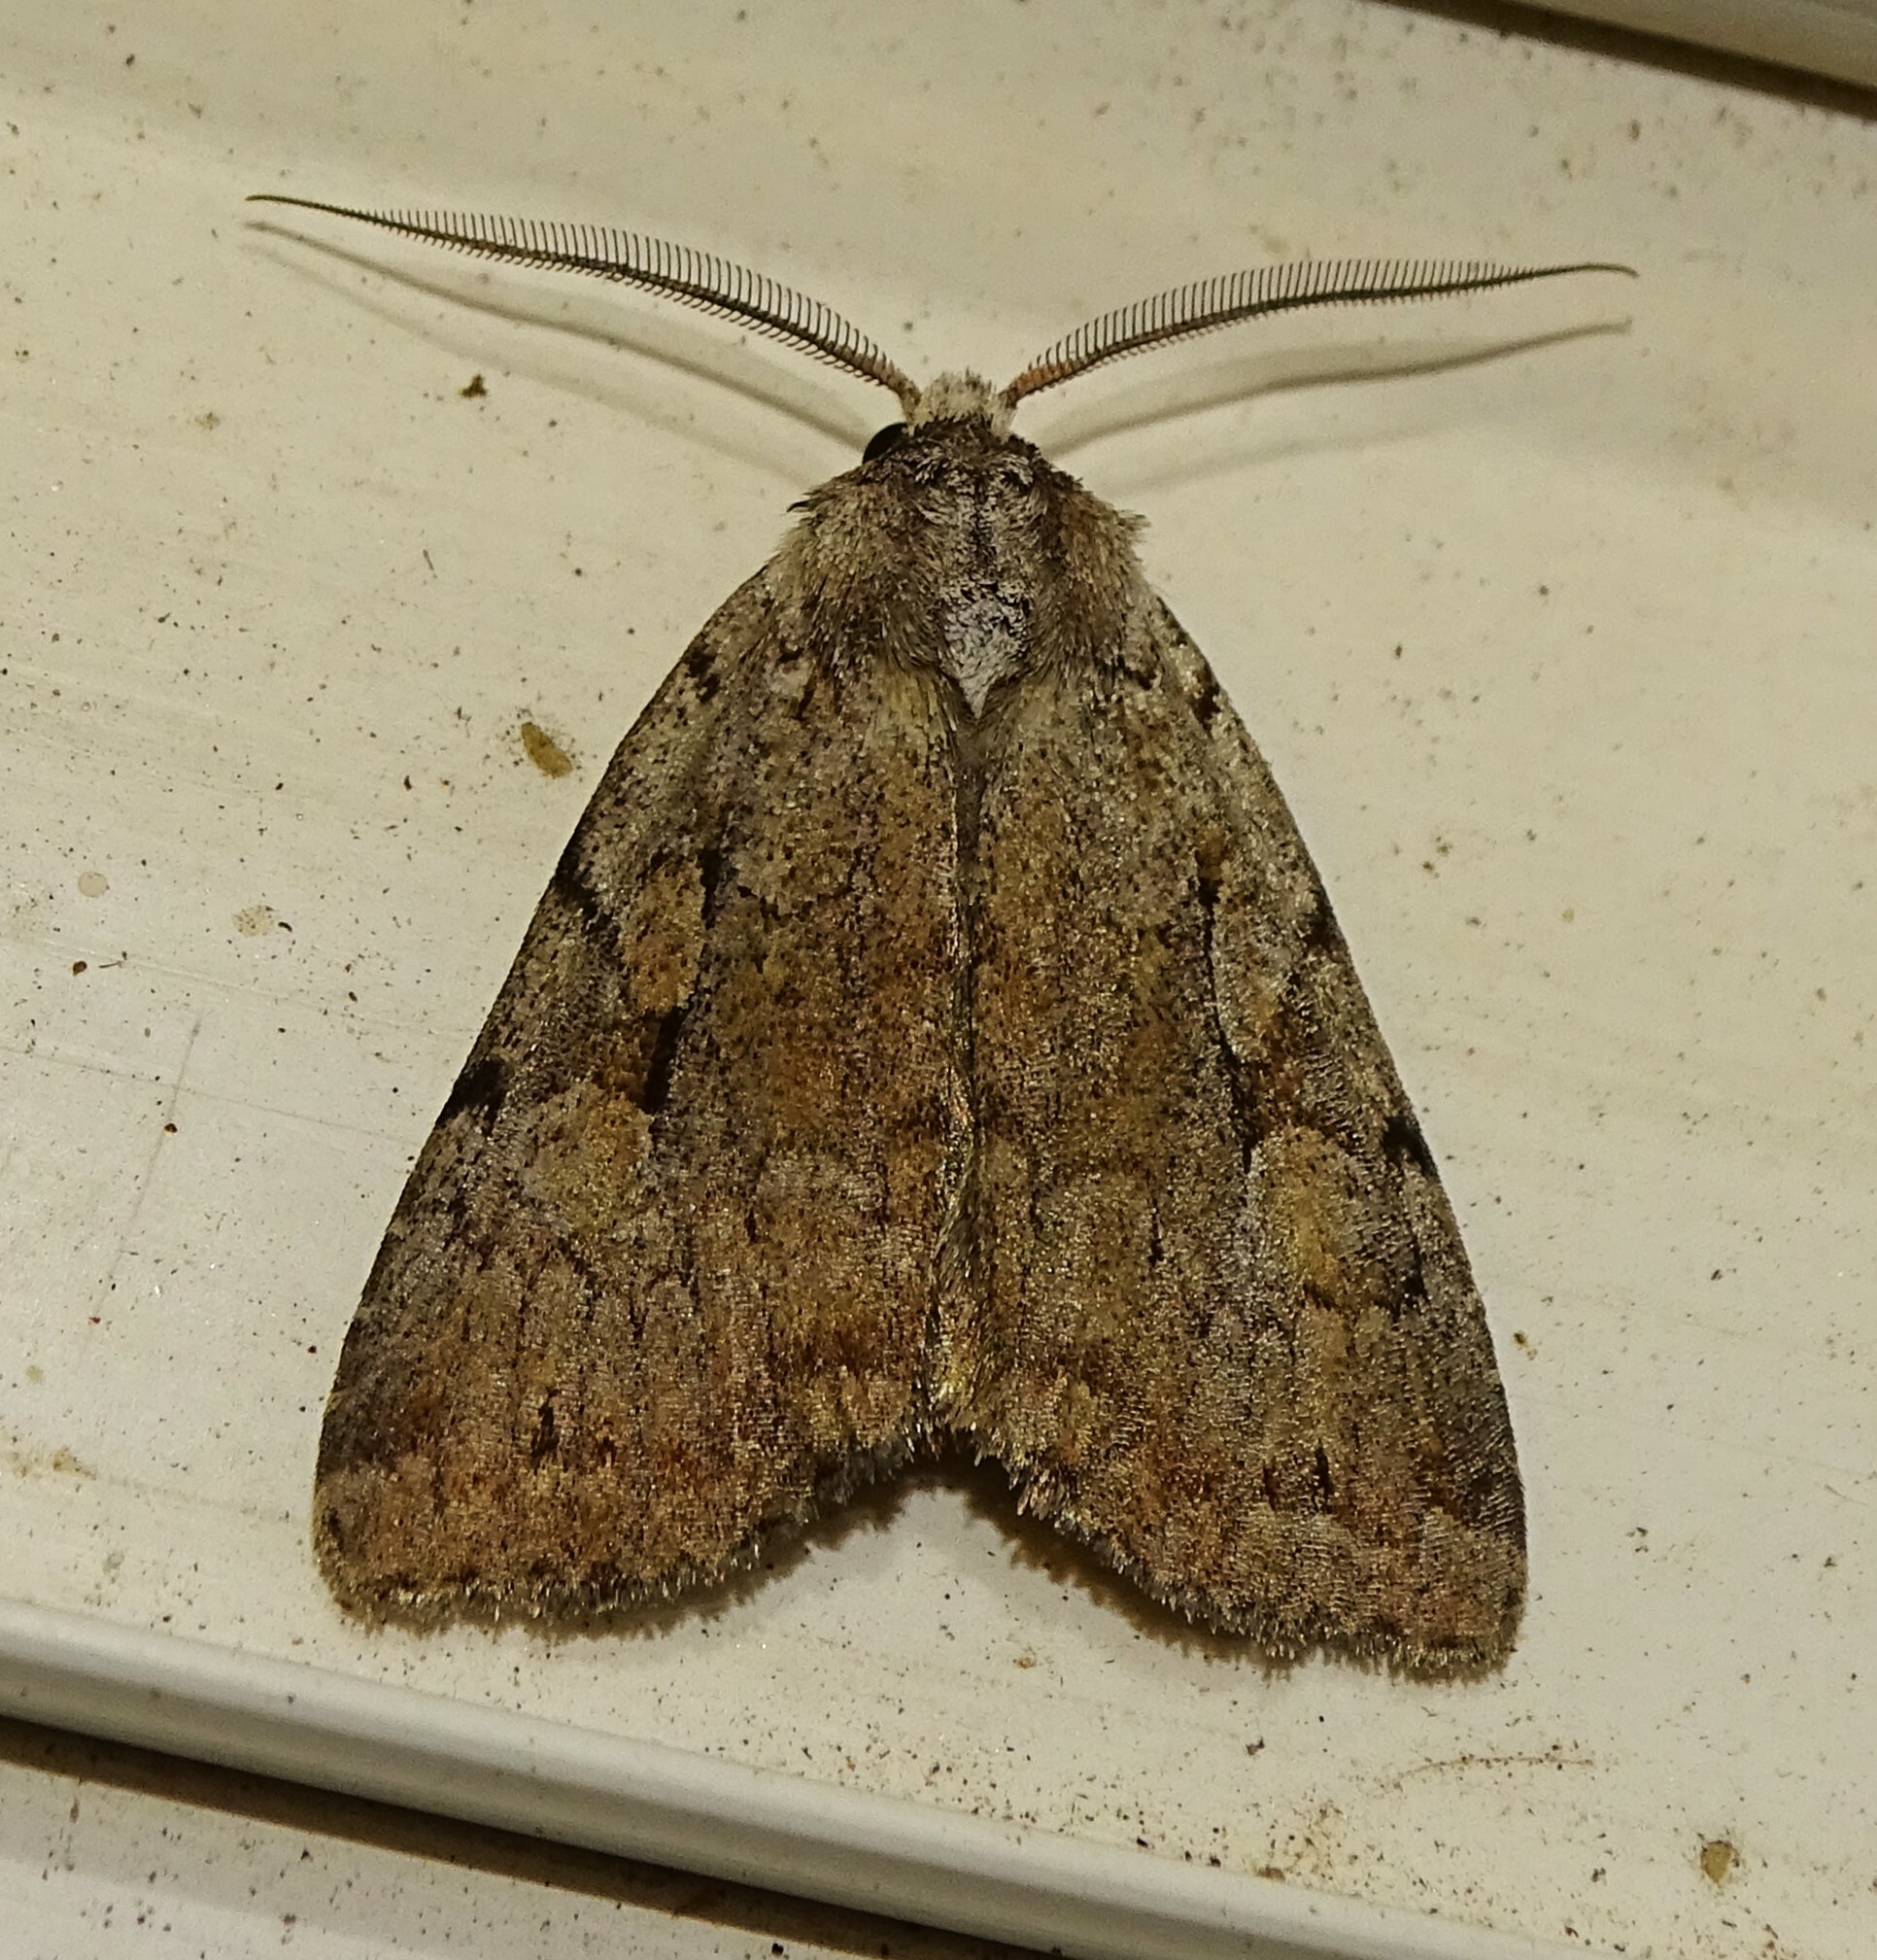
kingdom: Animalia
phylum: Arthropoda
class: Insecta
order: Lepidoptera
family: Noctuidae
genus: Xestia
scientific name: Xestia badicollis
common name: Northern variable dart
